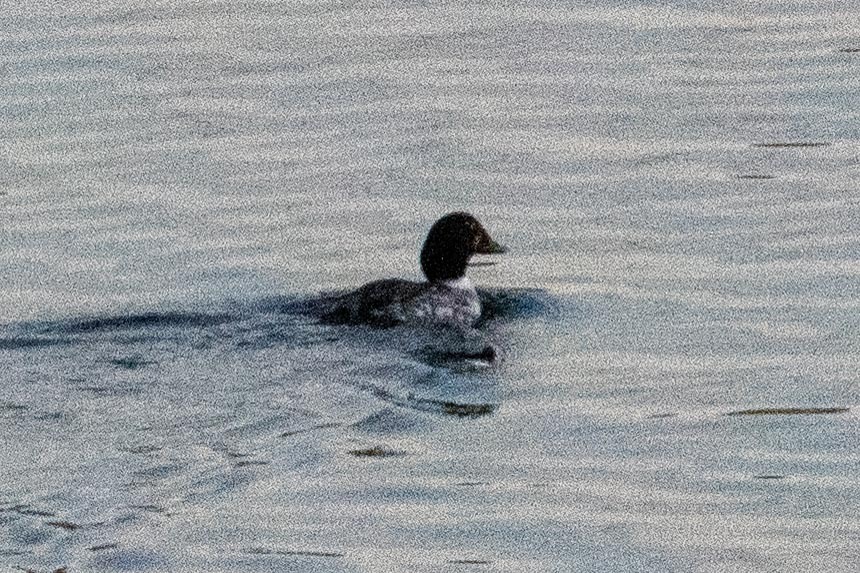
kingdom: Animalia
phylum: Chordata
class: Aves
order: Anseriformes
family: Anatidae
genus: Bucephala
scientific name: Bucephala clangula
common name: Common goldeneye
